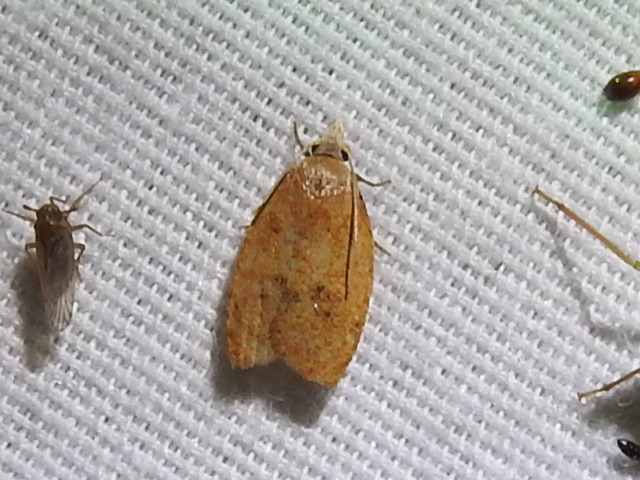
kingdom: Animalia
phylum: Arthropoda
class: Insecta
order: Lepidoptera
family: Tortricidae
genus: Sparganothoides
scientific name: Sparganothoides lentiginosana
